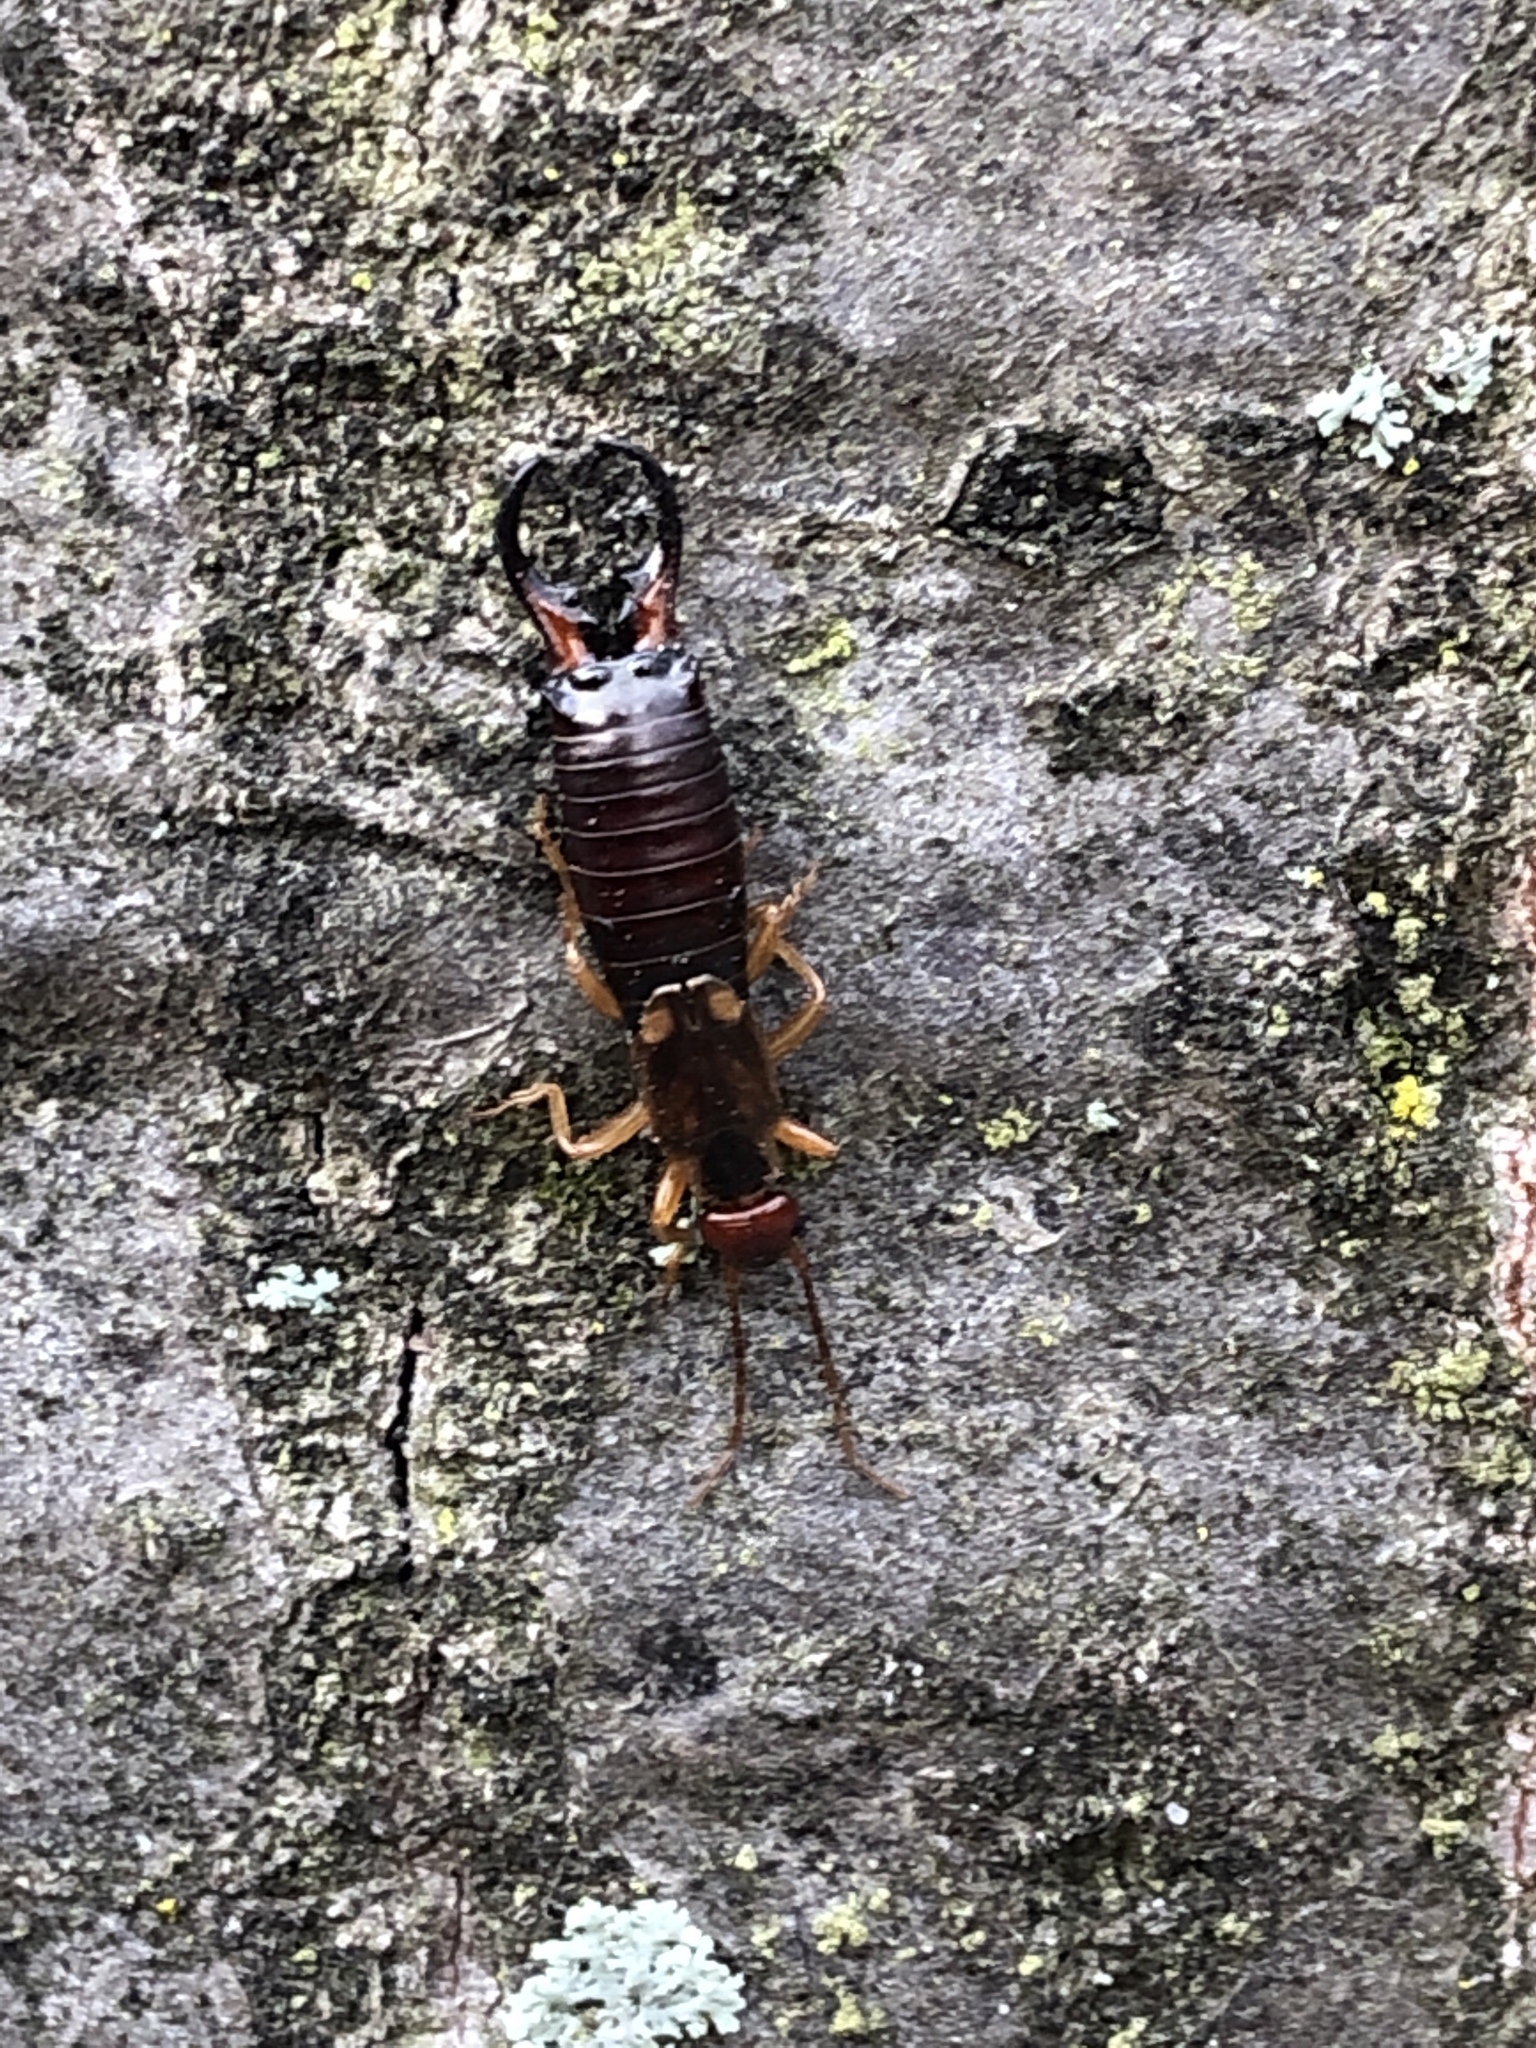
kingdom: Animalia
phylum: Arthropoda
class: Insecta
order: Dermaptera
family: Forficulidae
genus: Forficula
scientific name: Forficula
